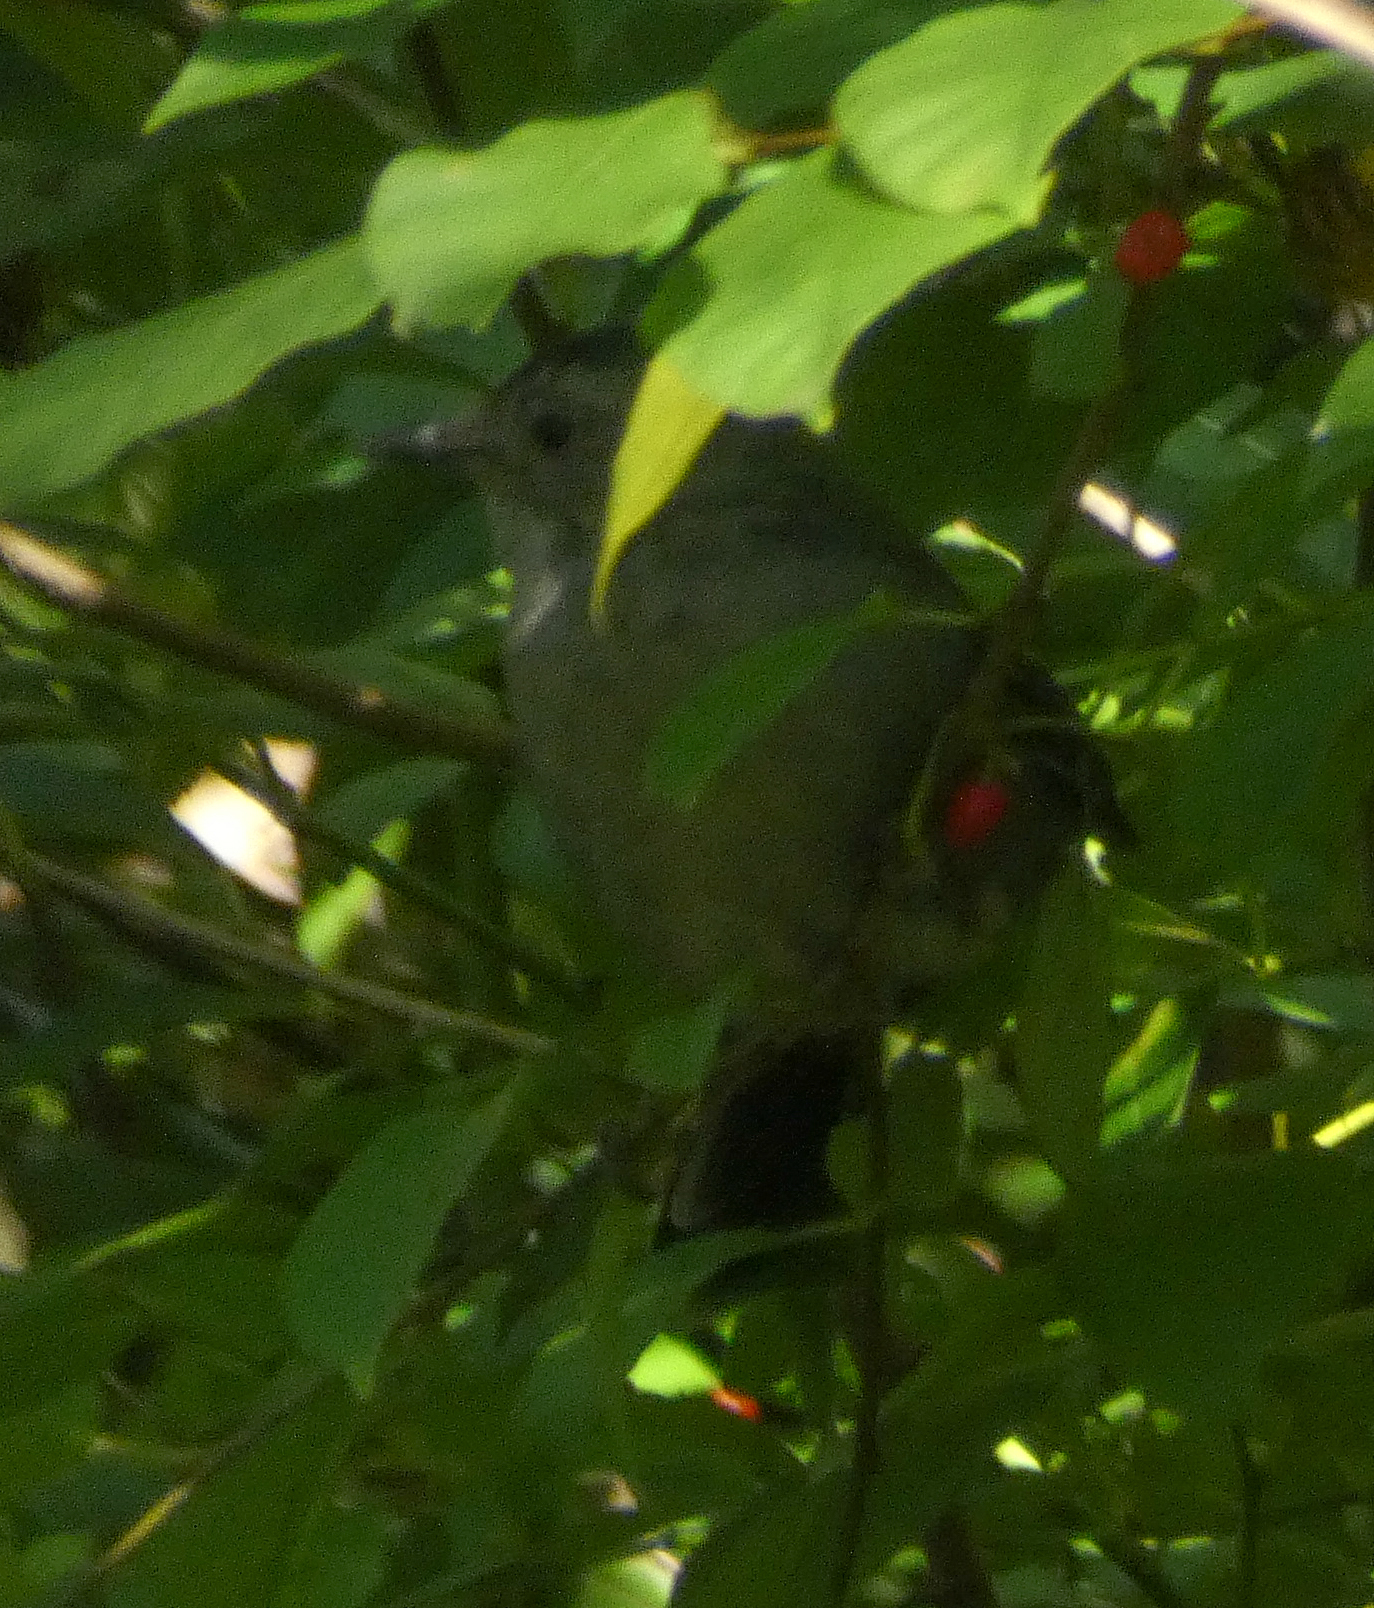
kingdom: Animalia
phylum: Chordata
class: Aves
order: Passeriformes
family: Mimidae
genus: Dumetella
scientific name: Dumetella carolinensis
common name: Gray catbird
